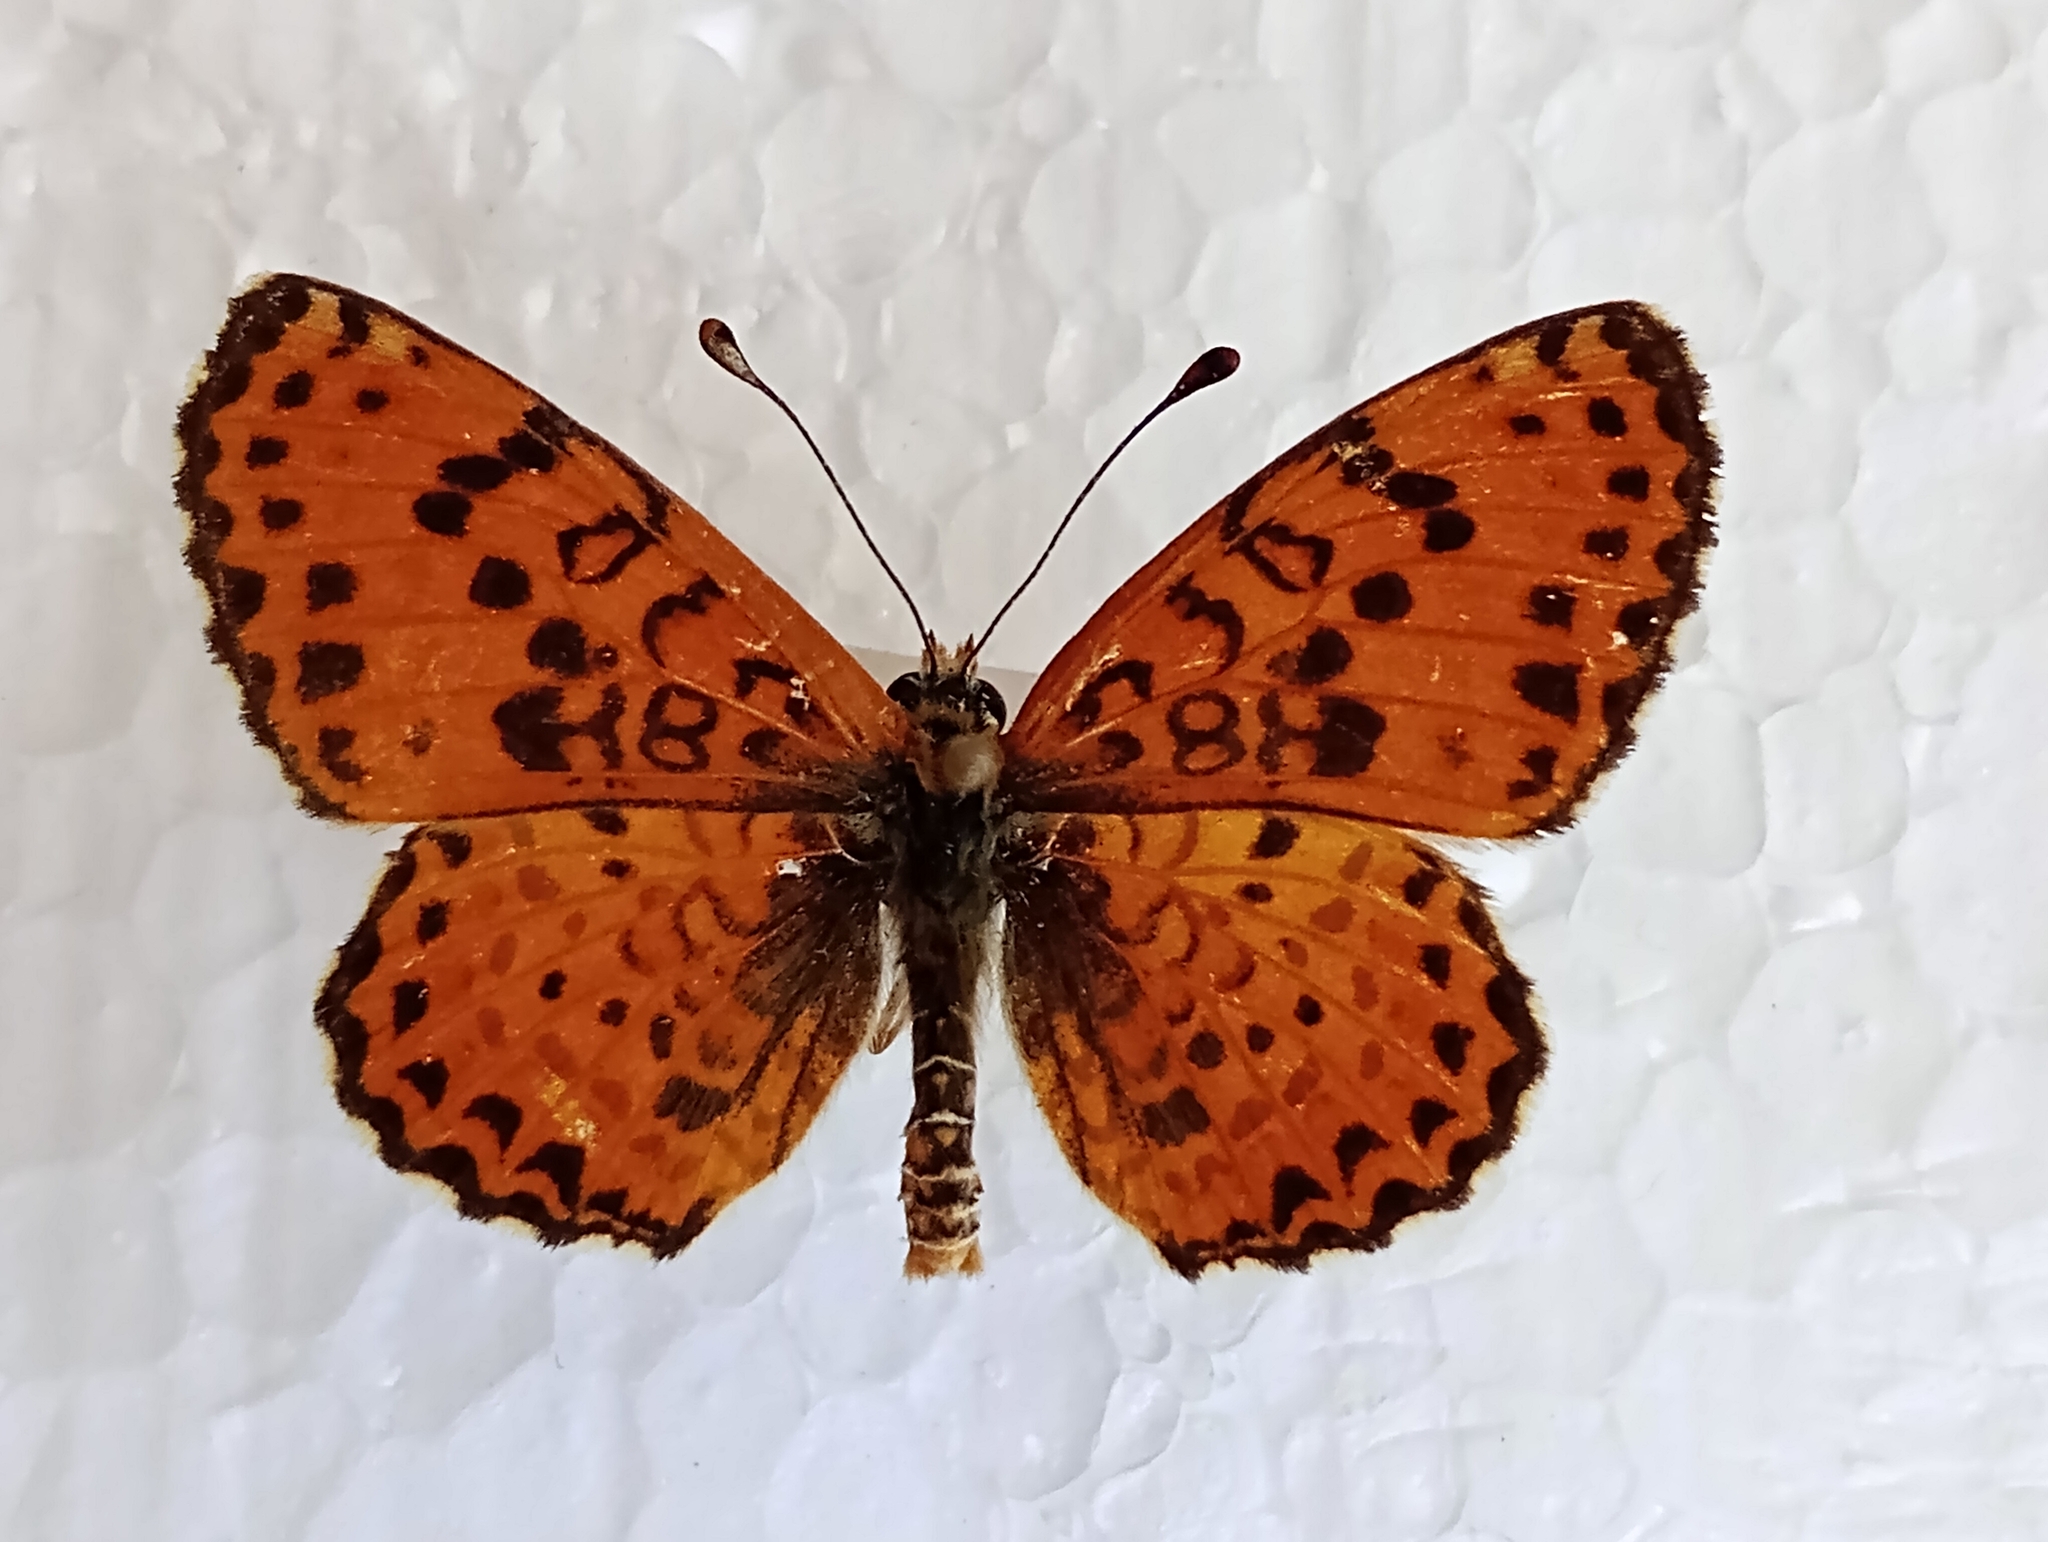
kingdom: Animalia
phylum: Arthropoda
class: Insecta
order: Lepidoptera
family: Nymphalidae
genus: Melitaea
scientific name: Melitaea didyma
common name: Spotted fritillary
